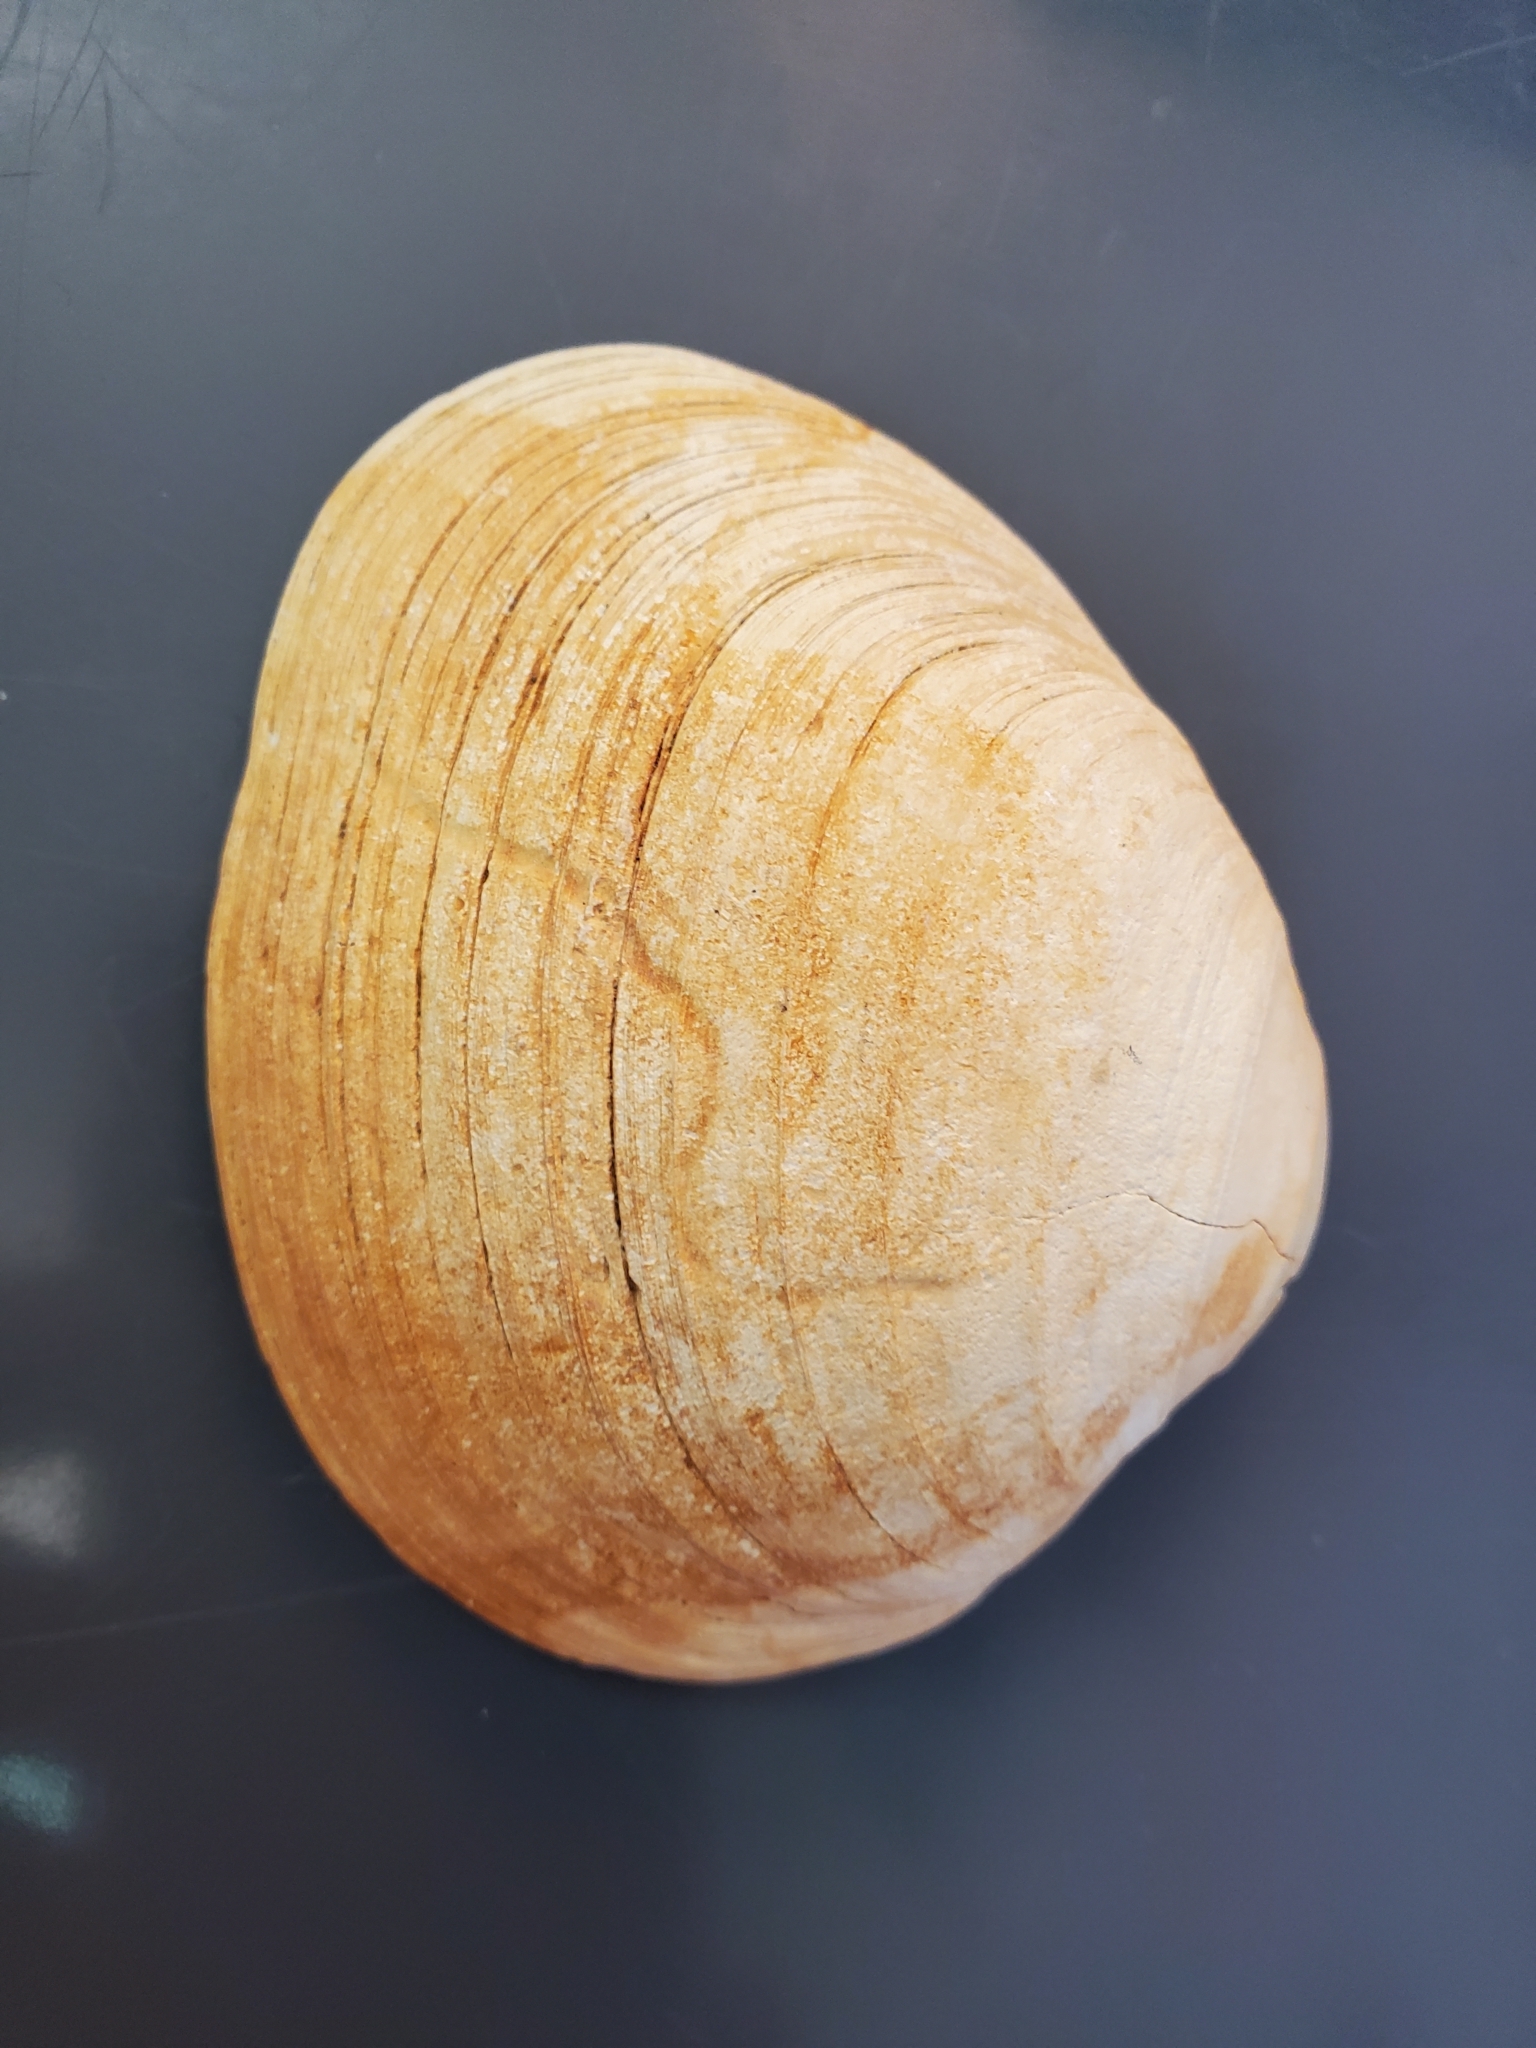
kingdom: Animalia
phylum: Mollusca
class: Bivalvia
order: Venerida
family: Veneridae
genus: Saxidomus
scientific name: Saxidomus gigantea
